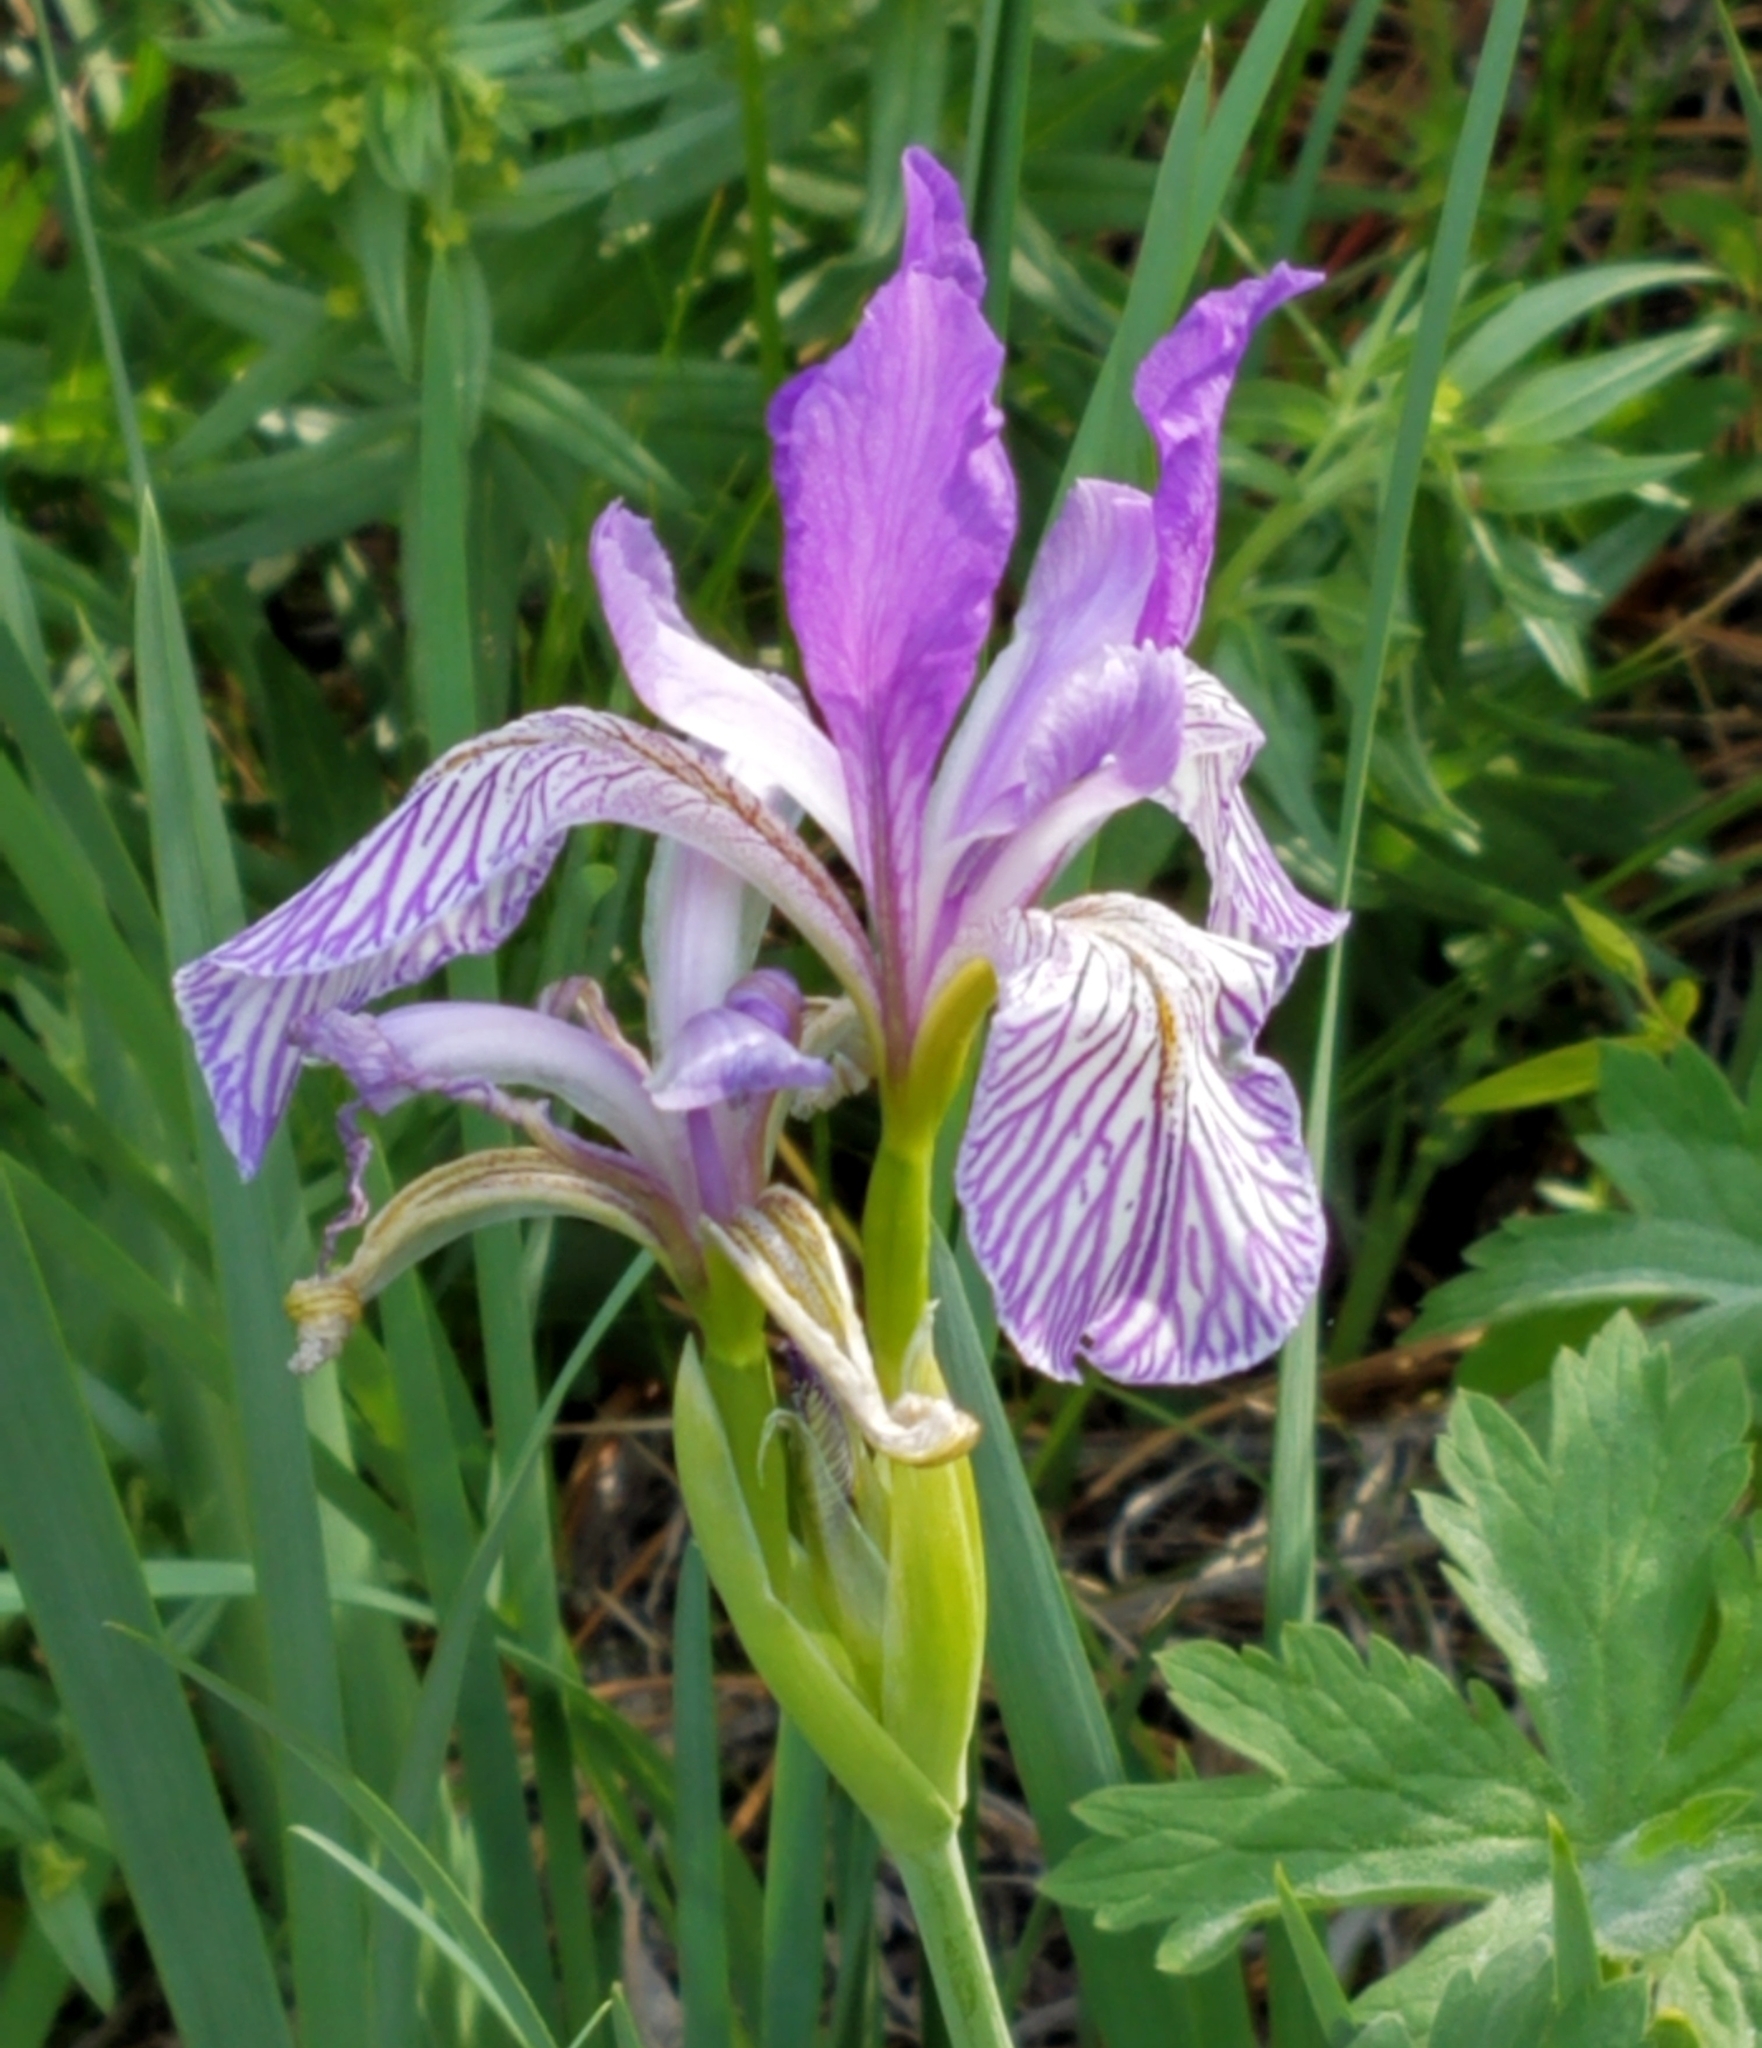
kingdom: Plantae
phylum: Tracheophyta
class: Liliopsida
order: Asparagales
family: Iridaceae
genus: Iris
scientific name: Iris missouriensis
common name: Rocky mountain iris
